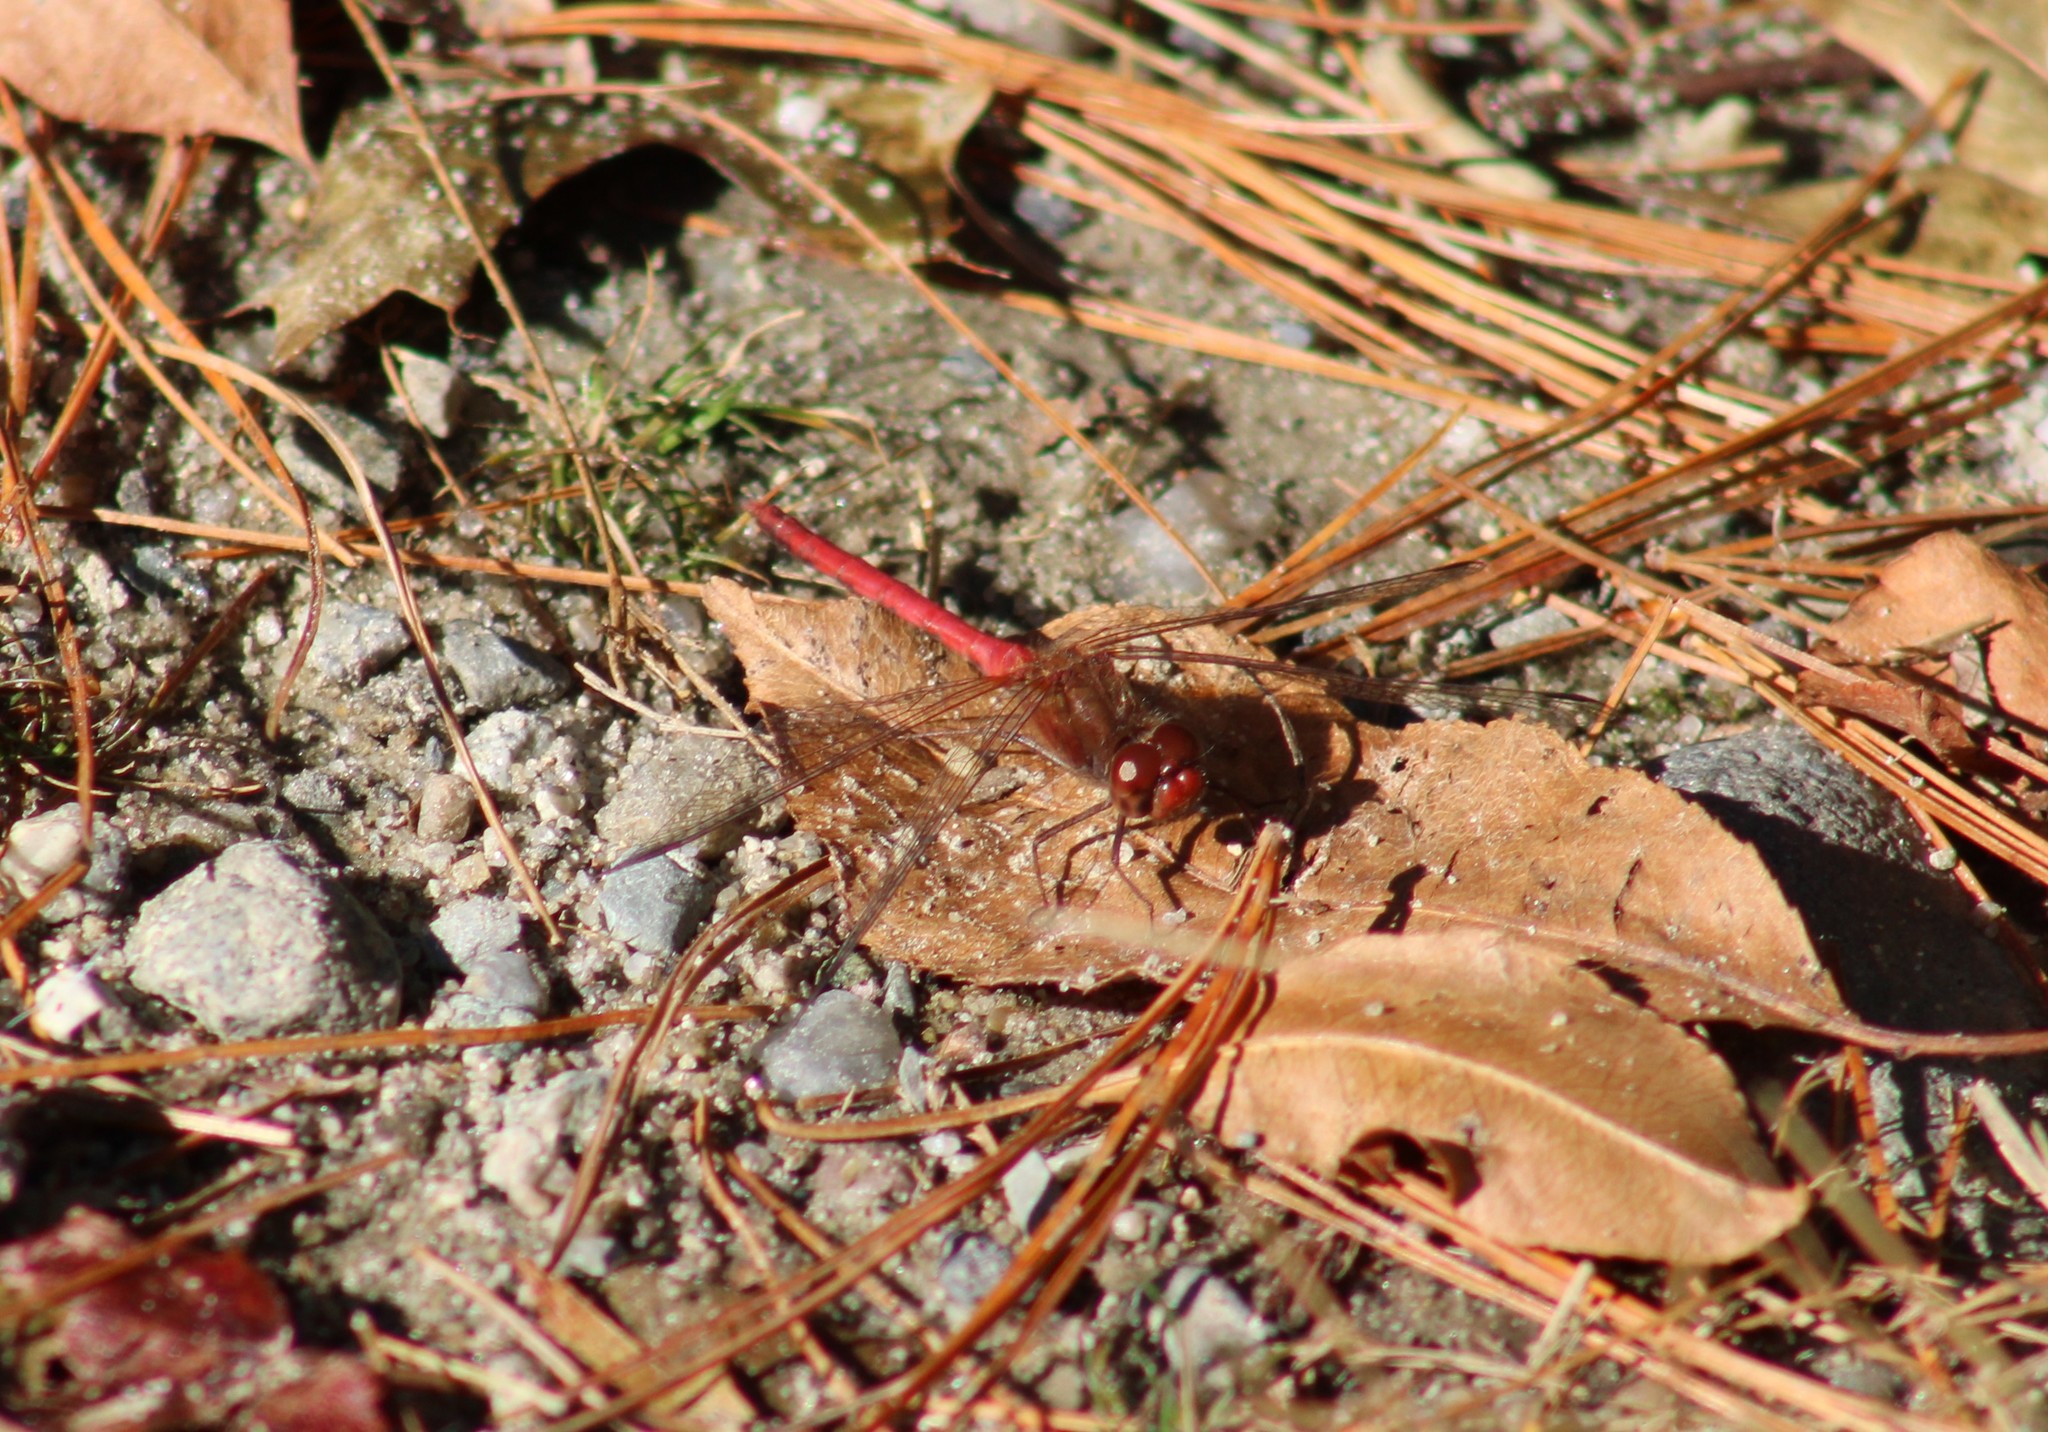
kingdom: Animalia
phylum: Arthropoda
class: Insecta
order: Odonata
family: Libellulidae
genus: Sympetrum
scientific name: Sympetrum vicinum
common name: Autumn meadowhawk
